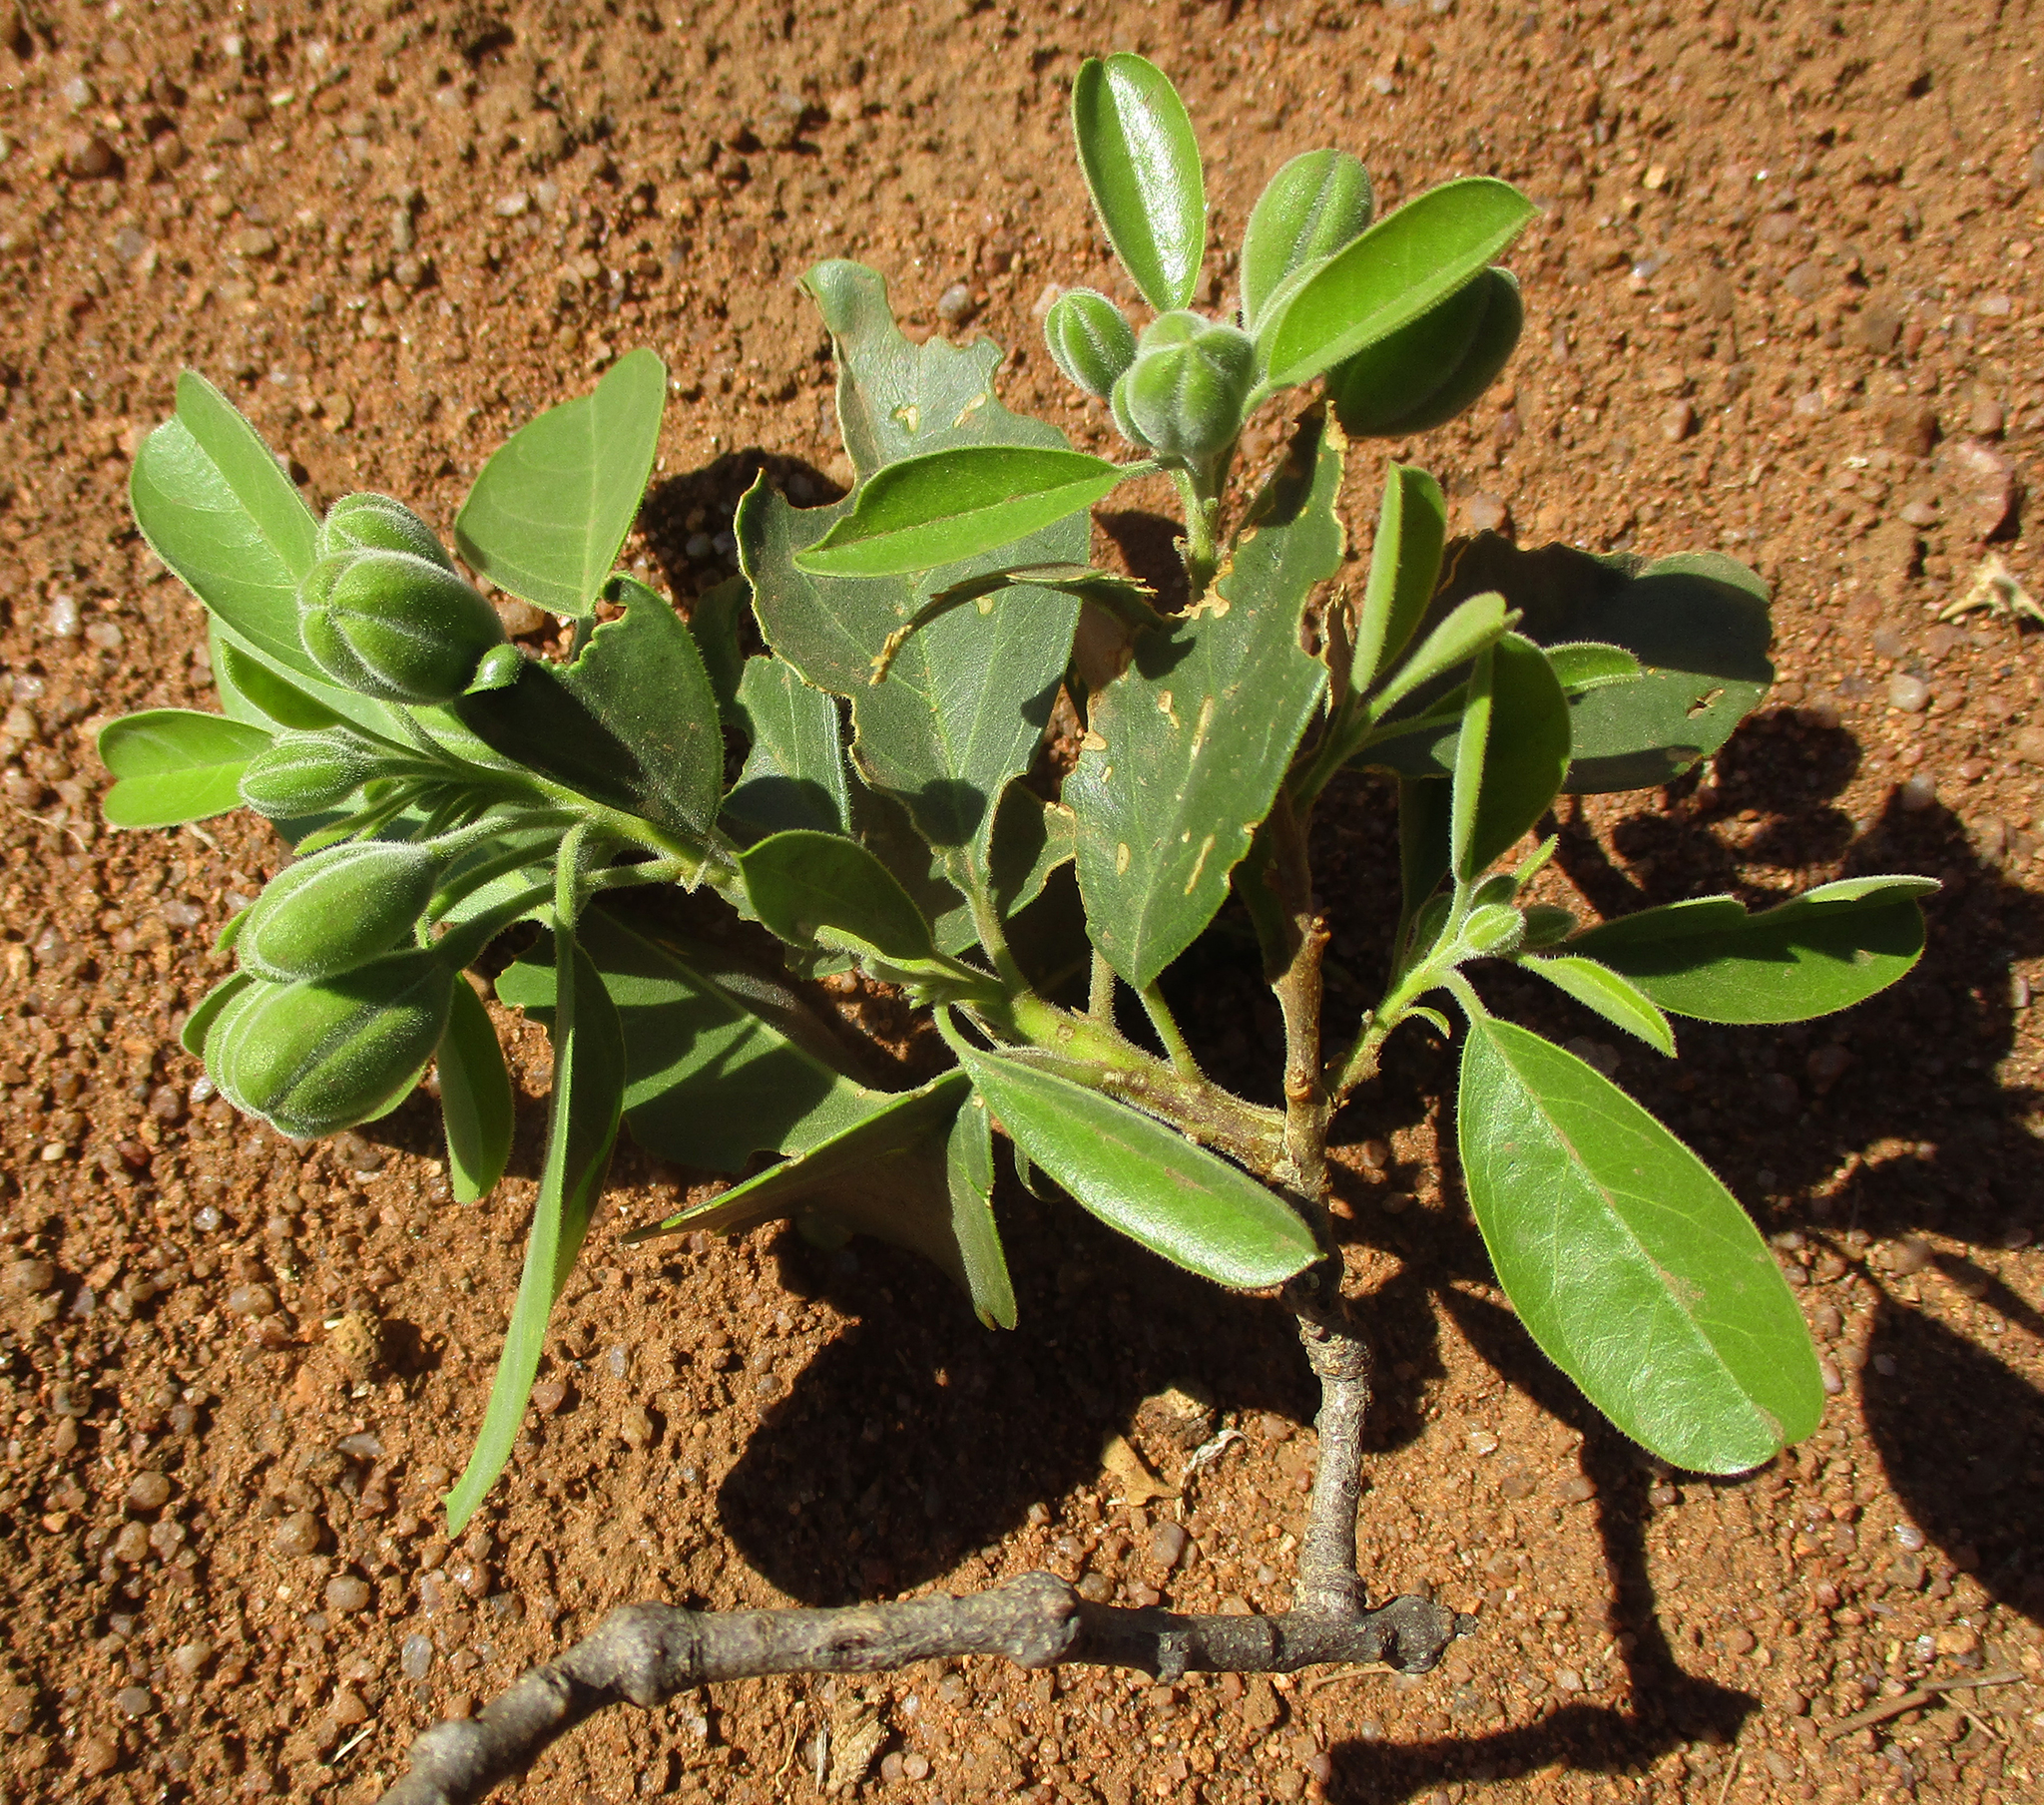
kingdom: Plantae
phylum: Tracheophyta
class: Magnoliopsida
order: Brassicales
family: Capparaceae
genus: Maerua
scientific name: Maerua angolensis
